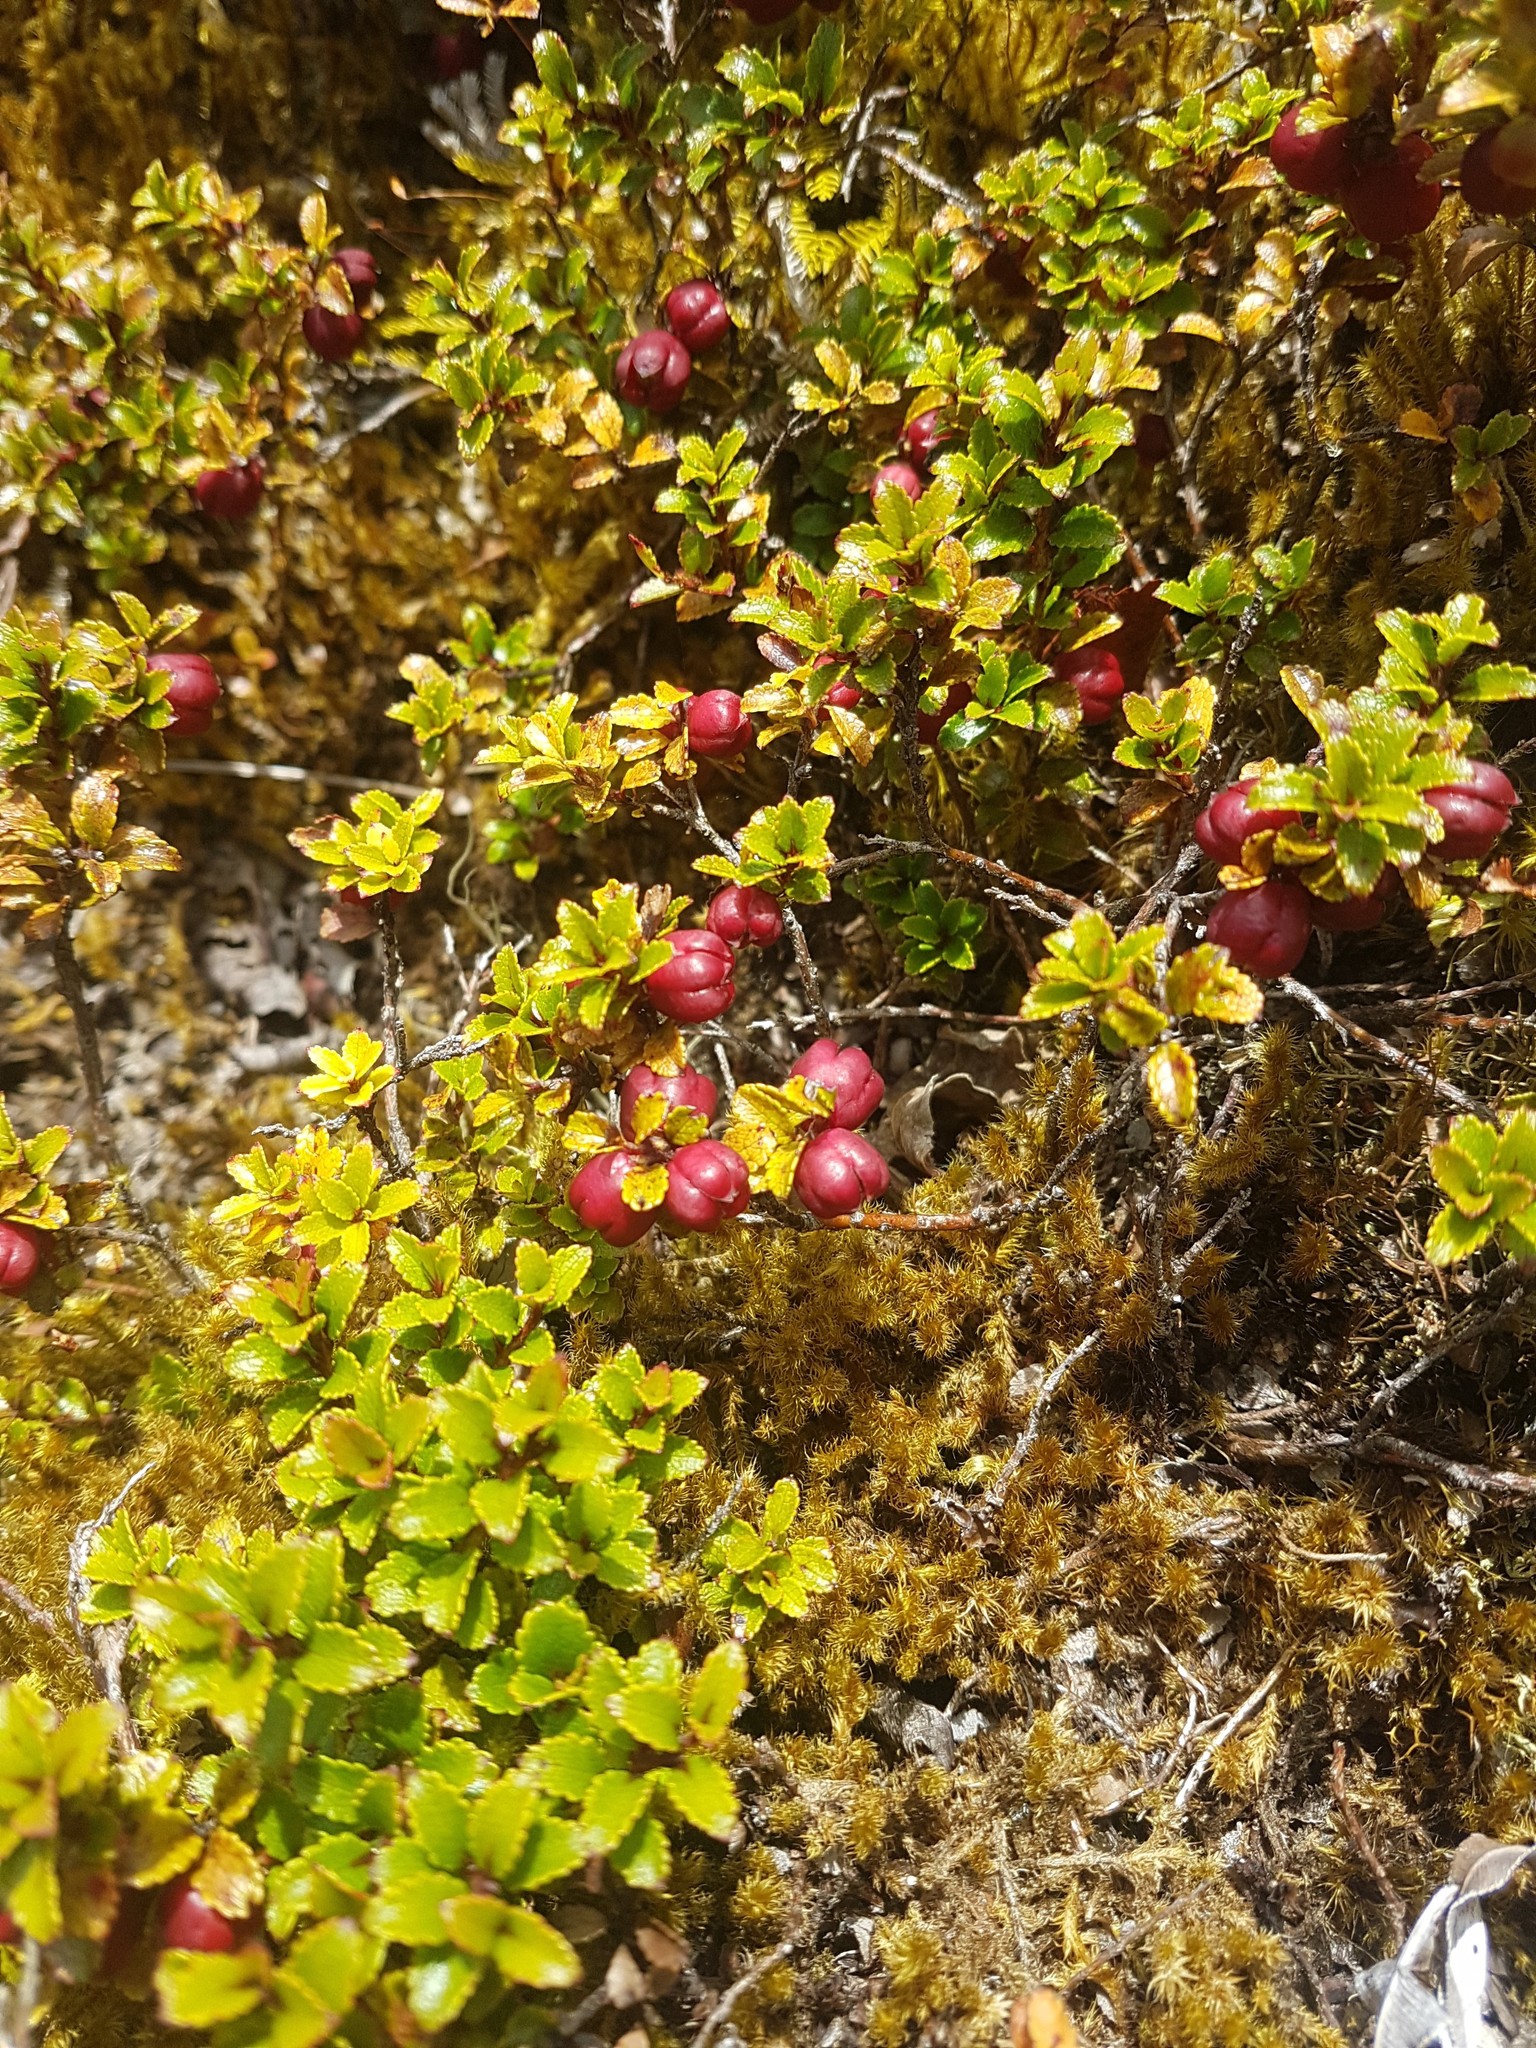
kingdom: Plantae
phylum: Tracheophyta
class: Magnoliopsida
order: Ericales
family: Ericaceae
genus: Gaultheria
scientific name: Gaultheria depressa
